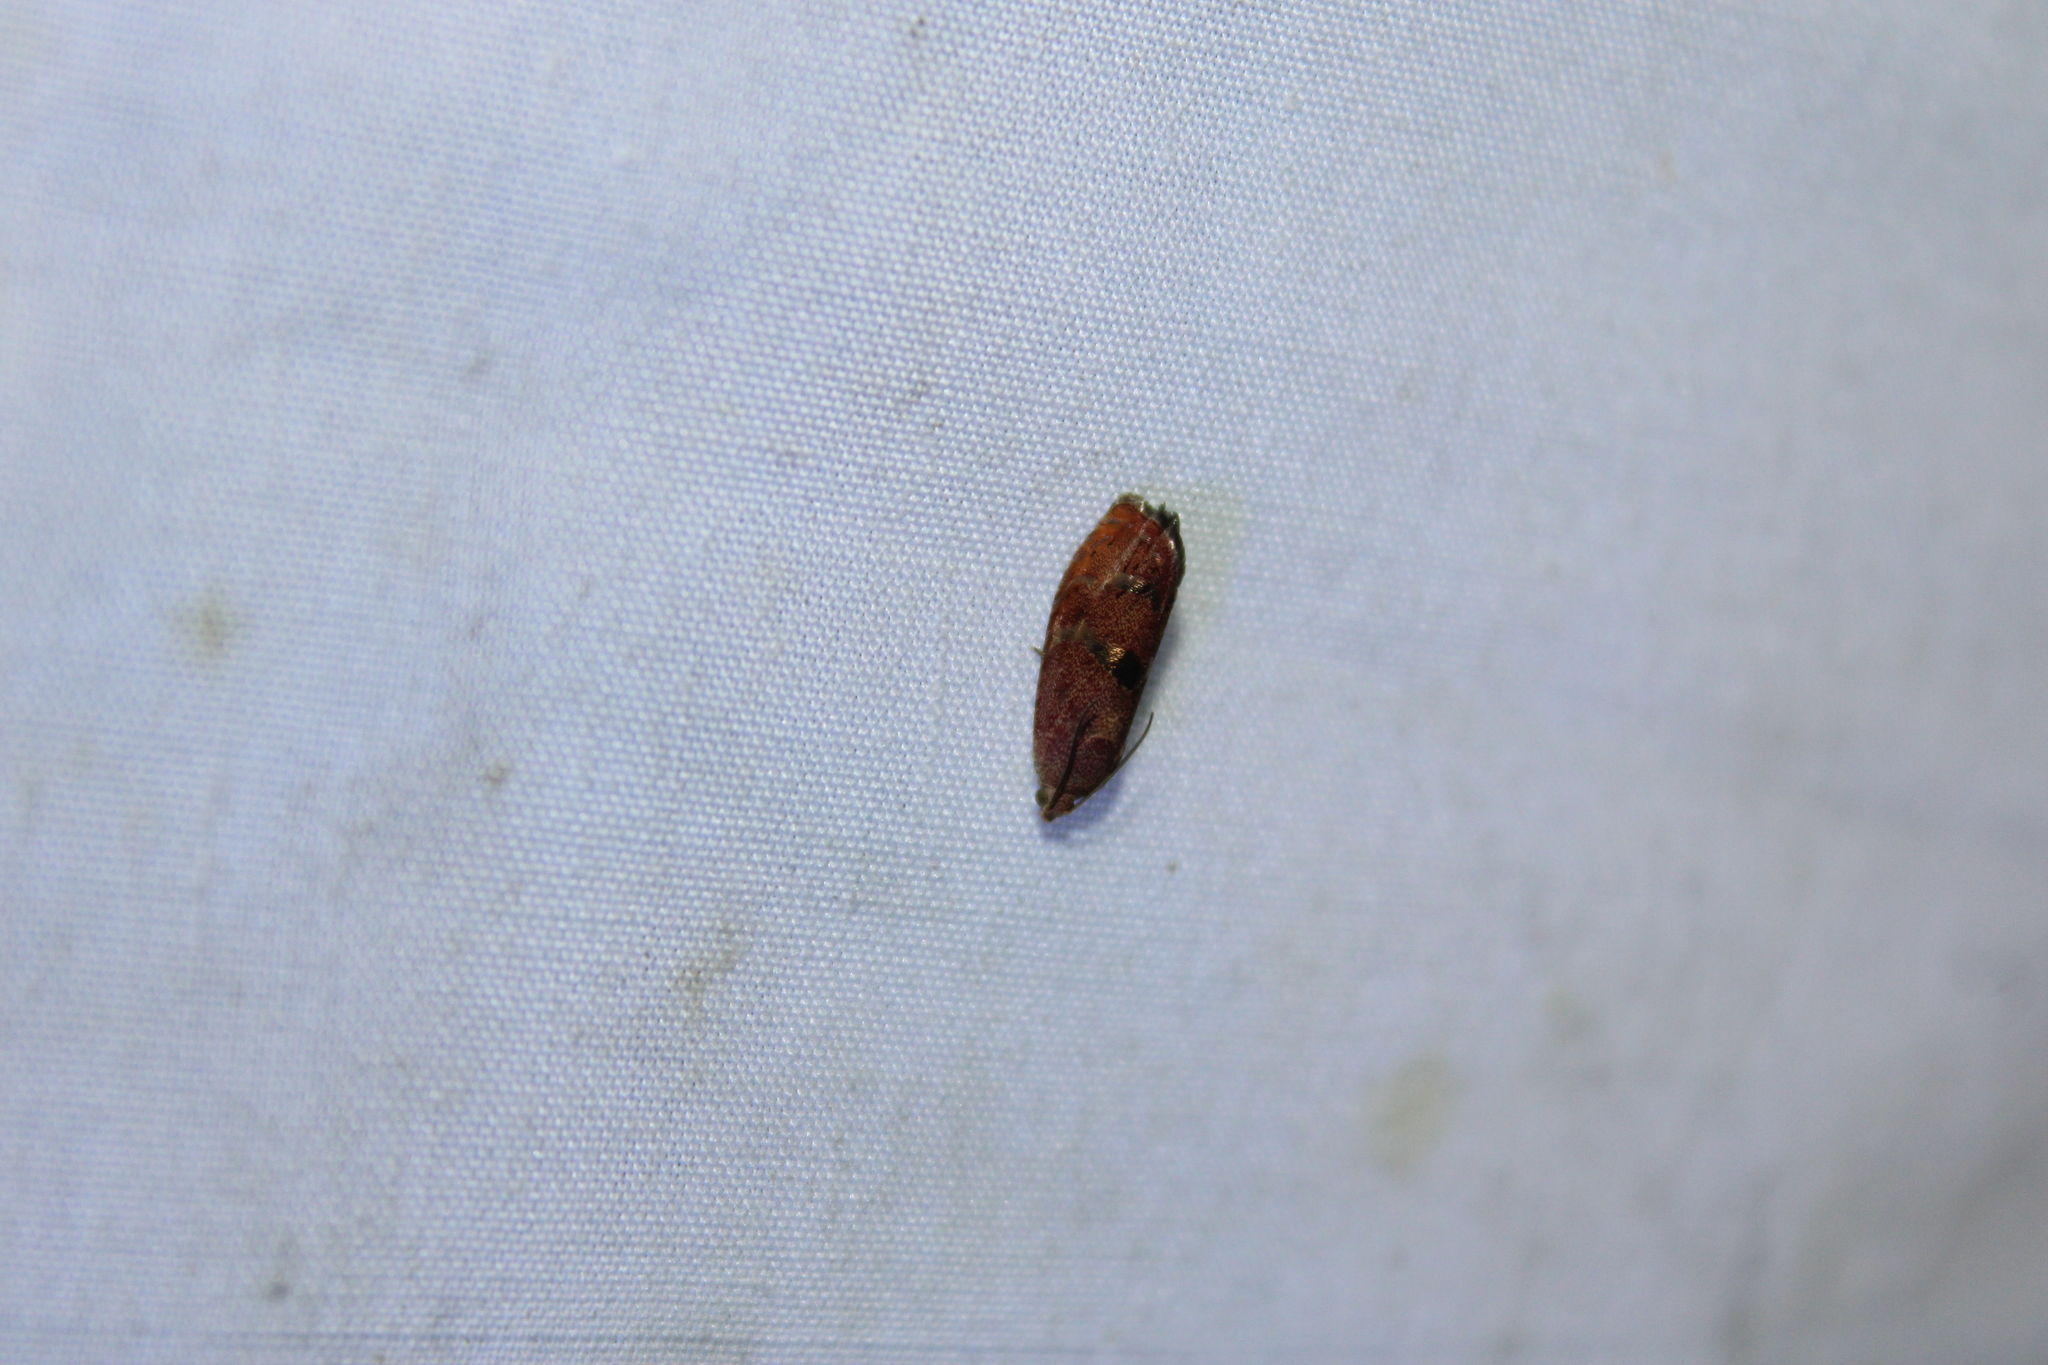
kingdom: Animalia
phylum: Arthropoda
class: Insecta
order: Lepidoptera
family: Tortricidae
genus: Cydia
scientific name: Cydia latiferreana
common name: Filbertworm moth
